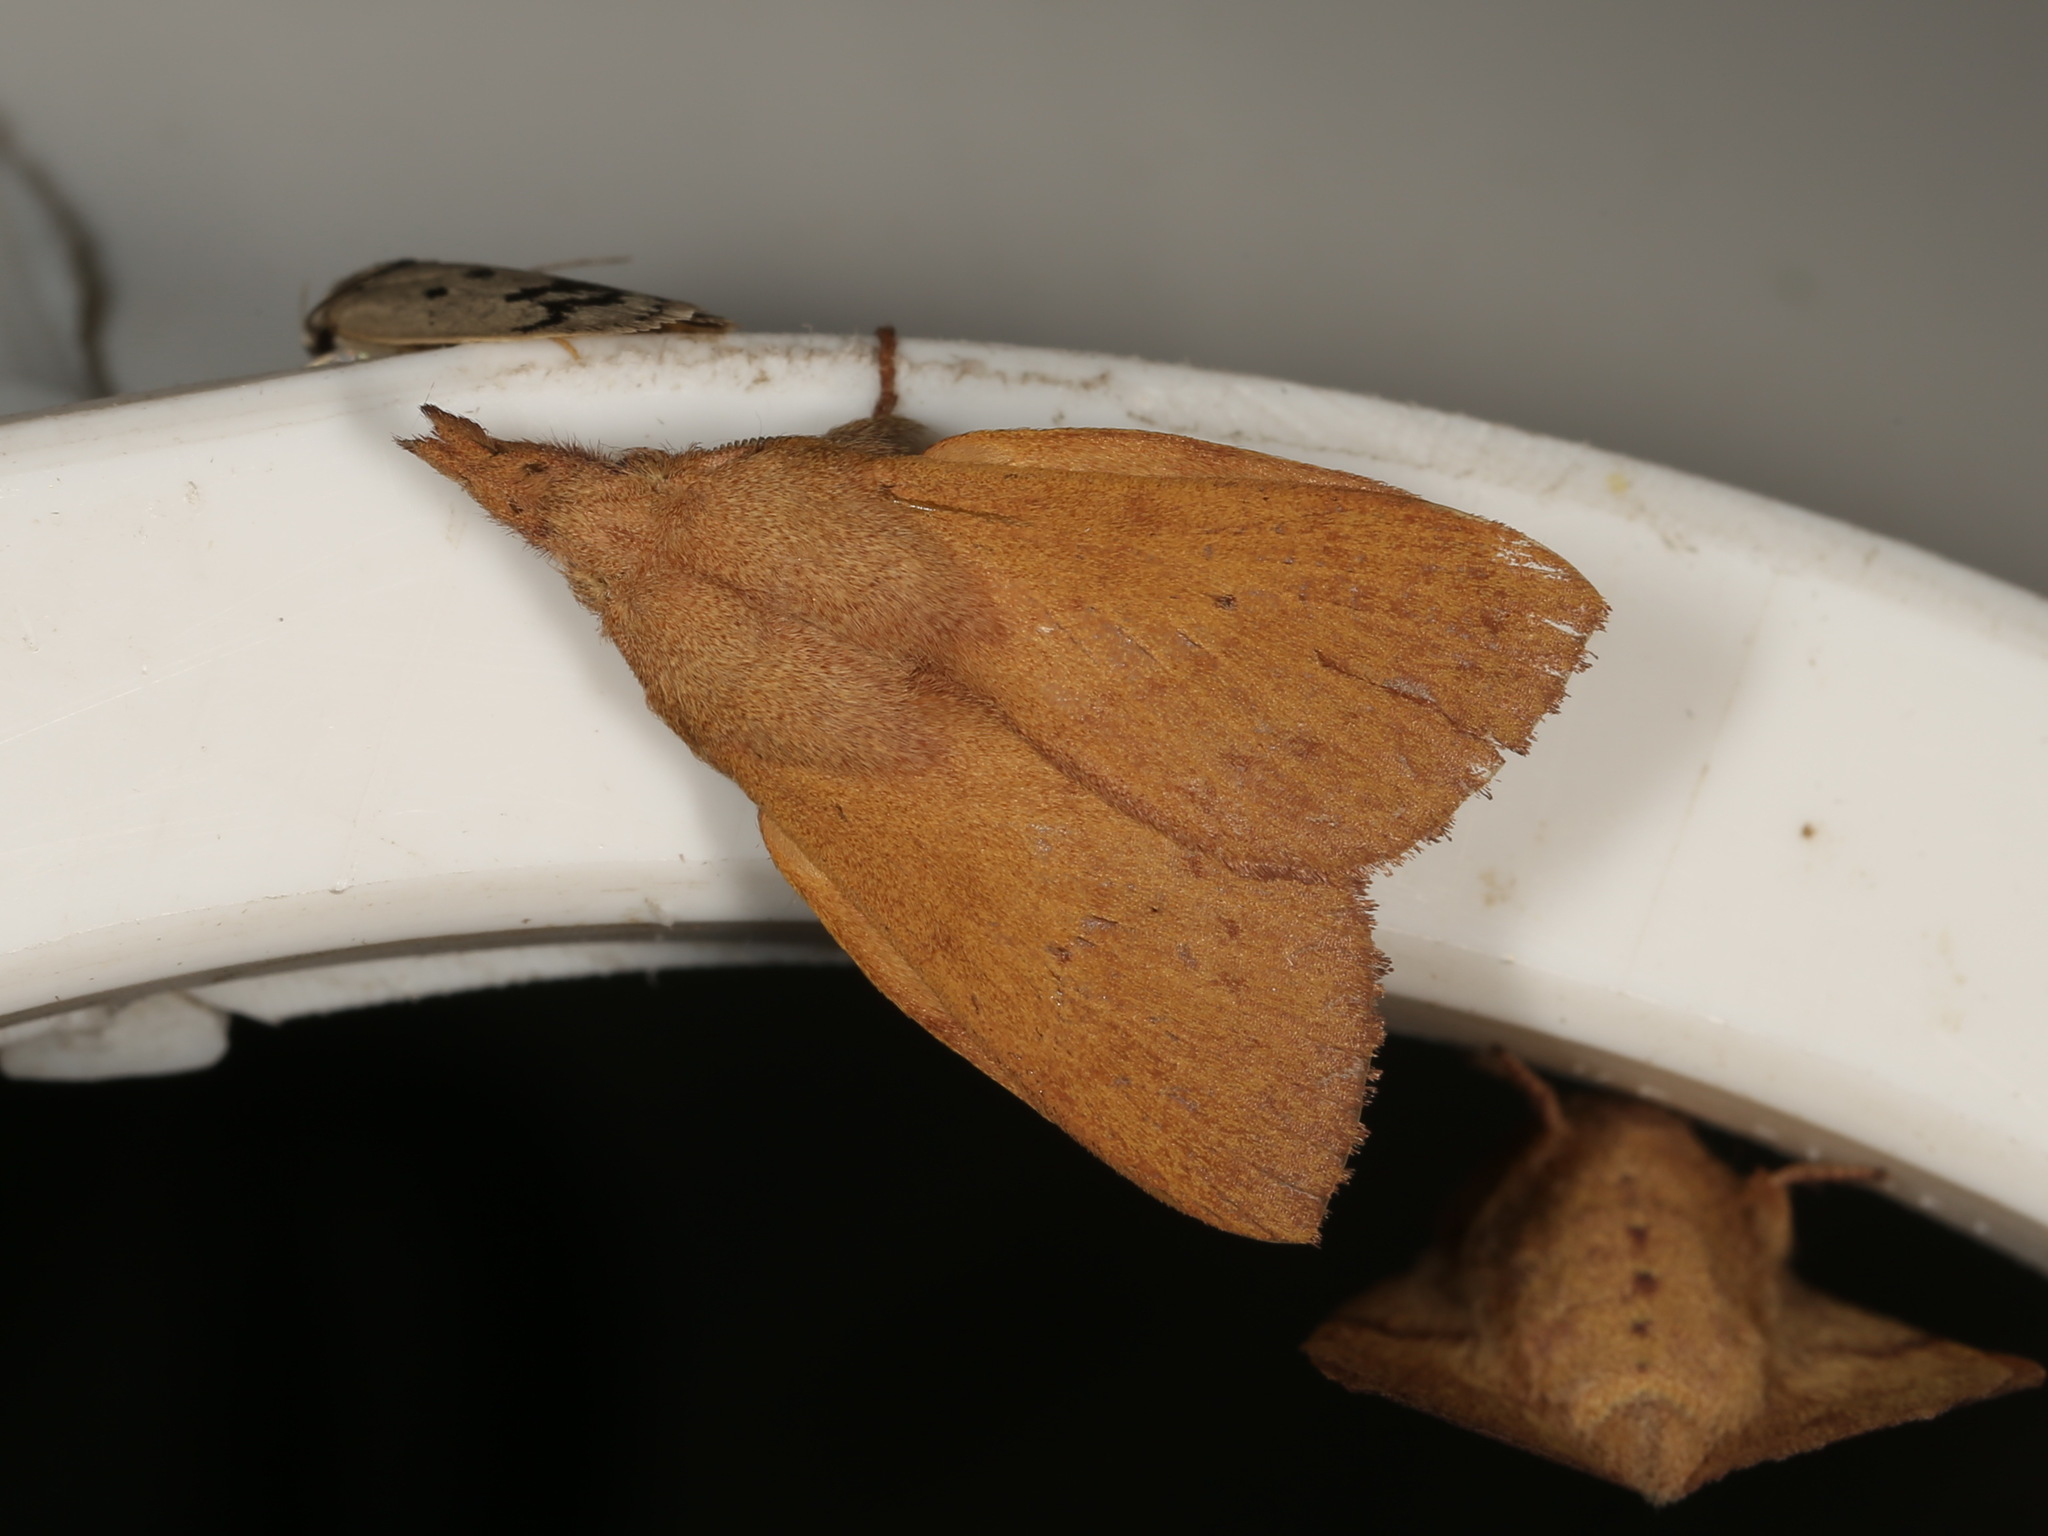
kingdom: Animalia
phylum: Arthropoda
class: Insecta
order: Lepidoptera
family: Lasiocampidae
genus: Pararguda
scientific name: Pararguda nasuta
